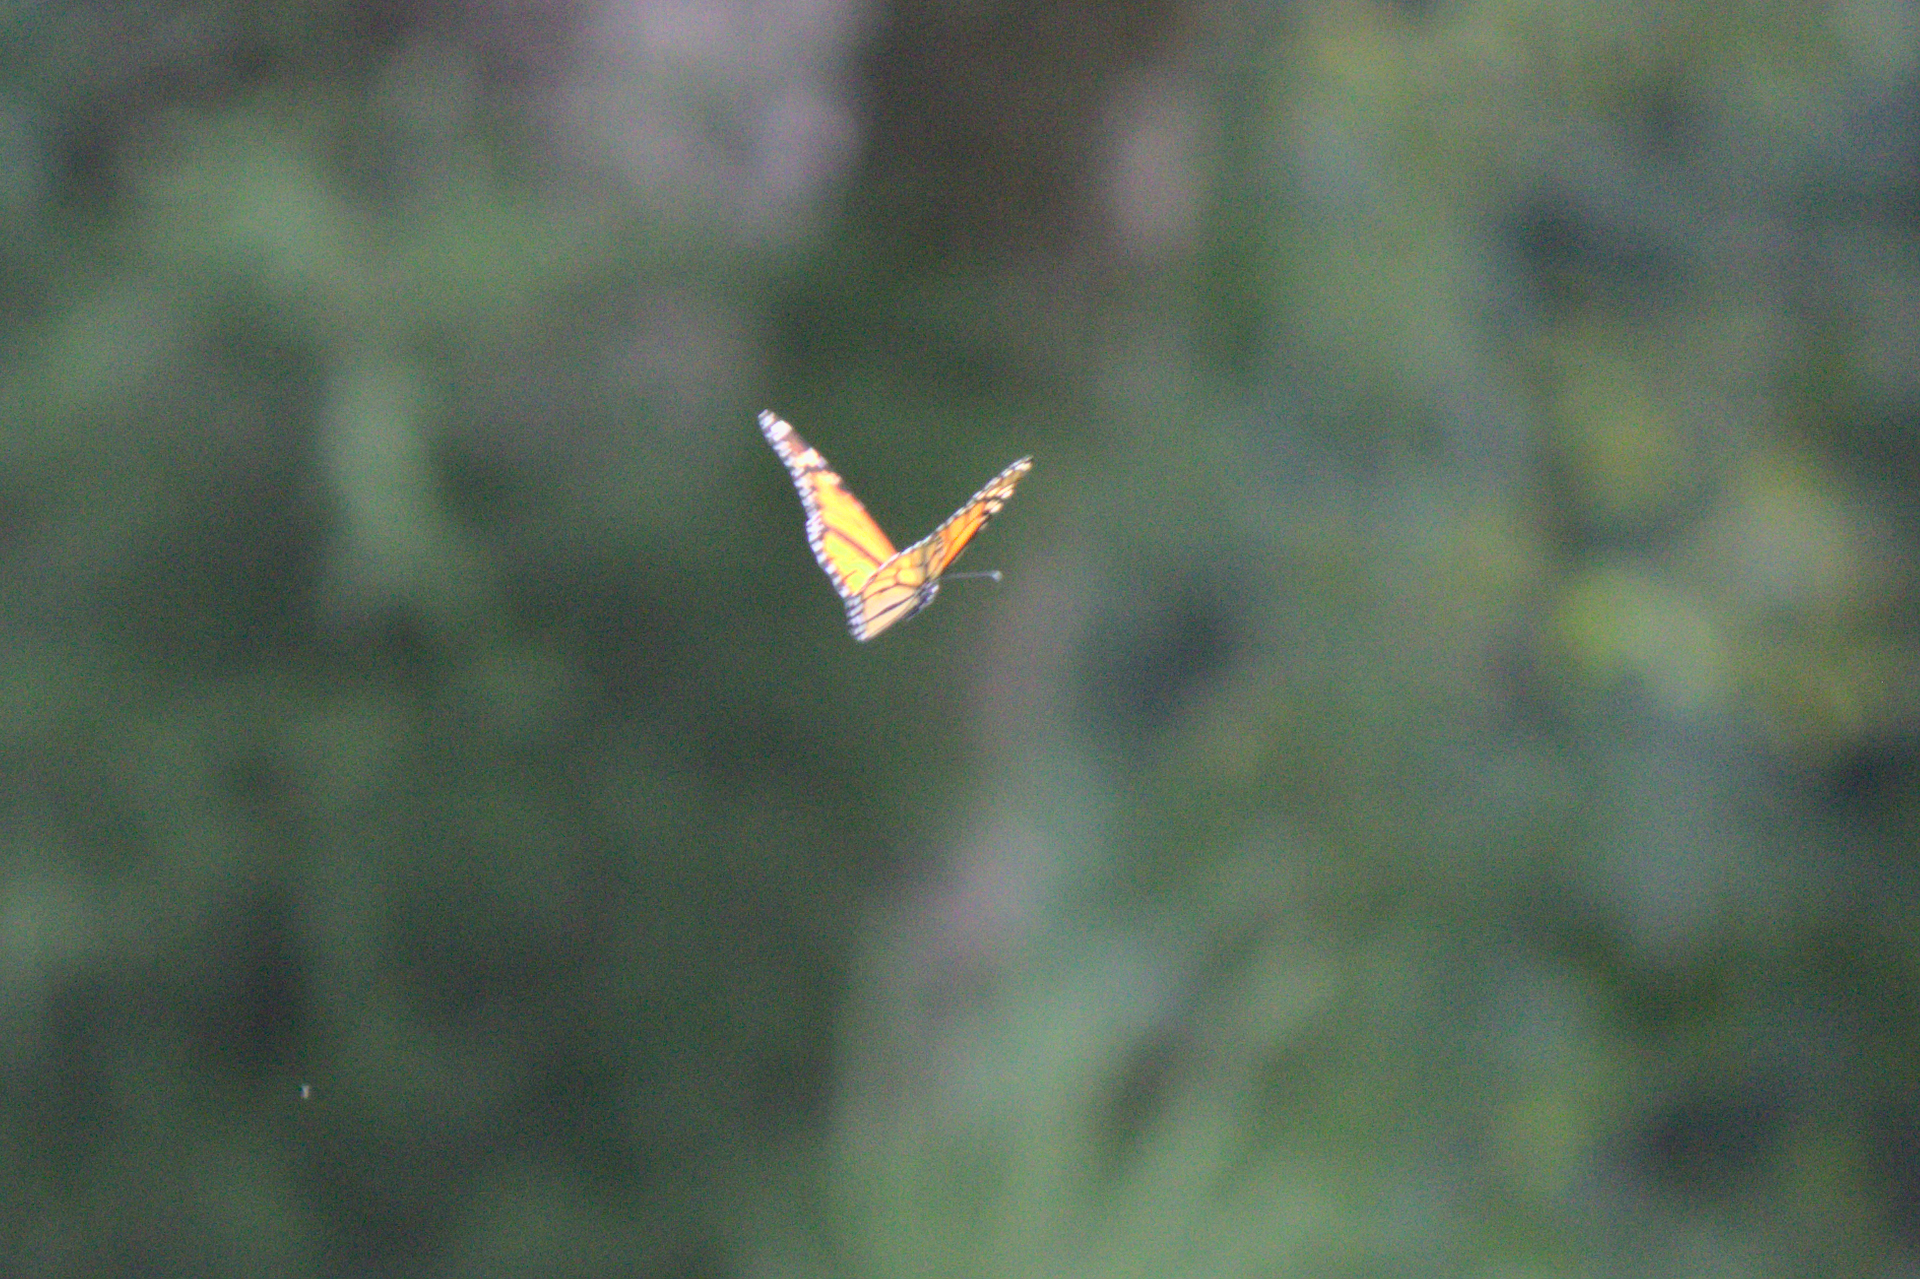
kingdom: Animalia
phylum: Arthropoda
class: Insecta
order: Lepidoptera
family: Nymphalidae
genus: Danaus
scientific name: Danaus plexippus
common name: Monarch
